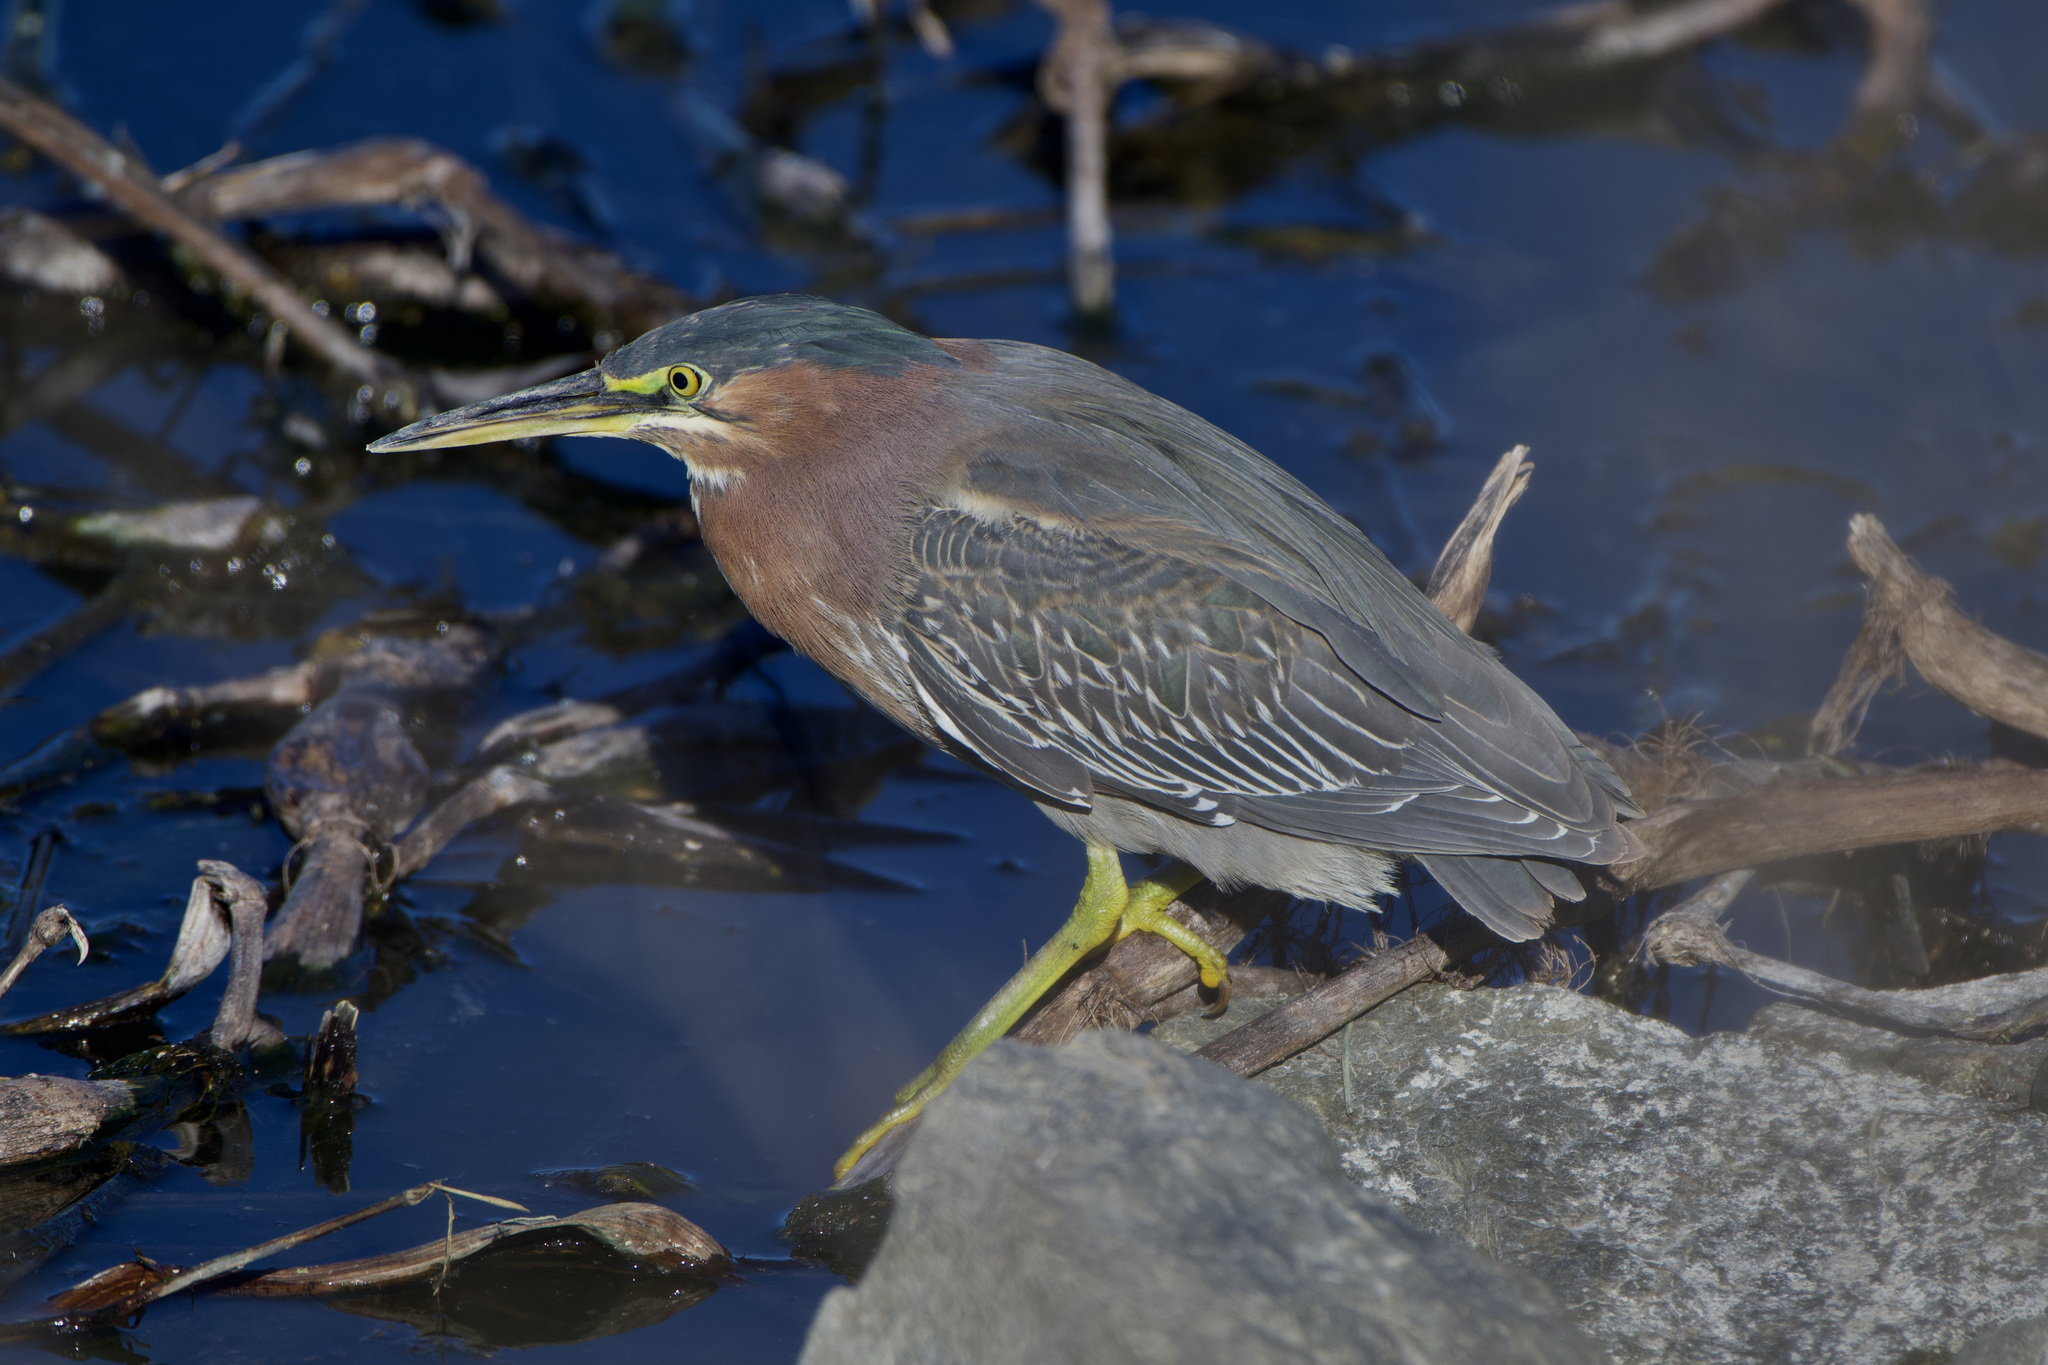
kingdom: Animalia
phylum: Chordata
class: Aves
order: Pelecaniformes
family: Ardeidae
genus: Butorides
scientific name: Butorides virescens
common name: Green heron
